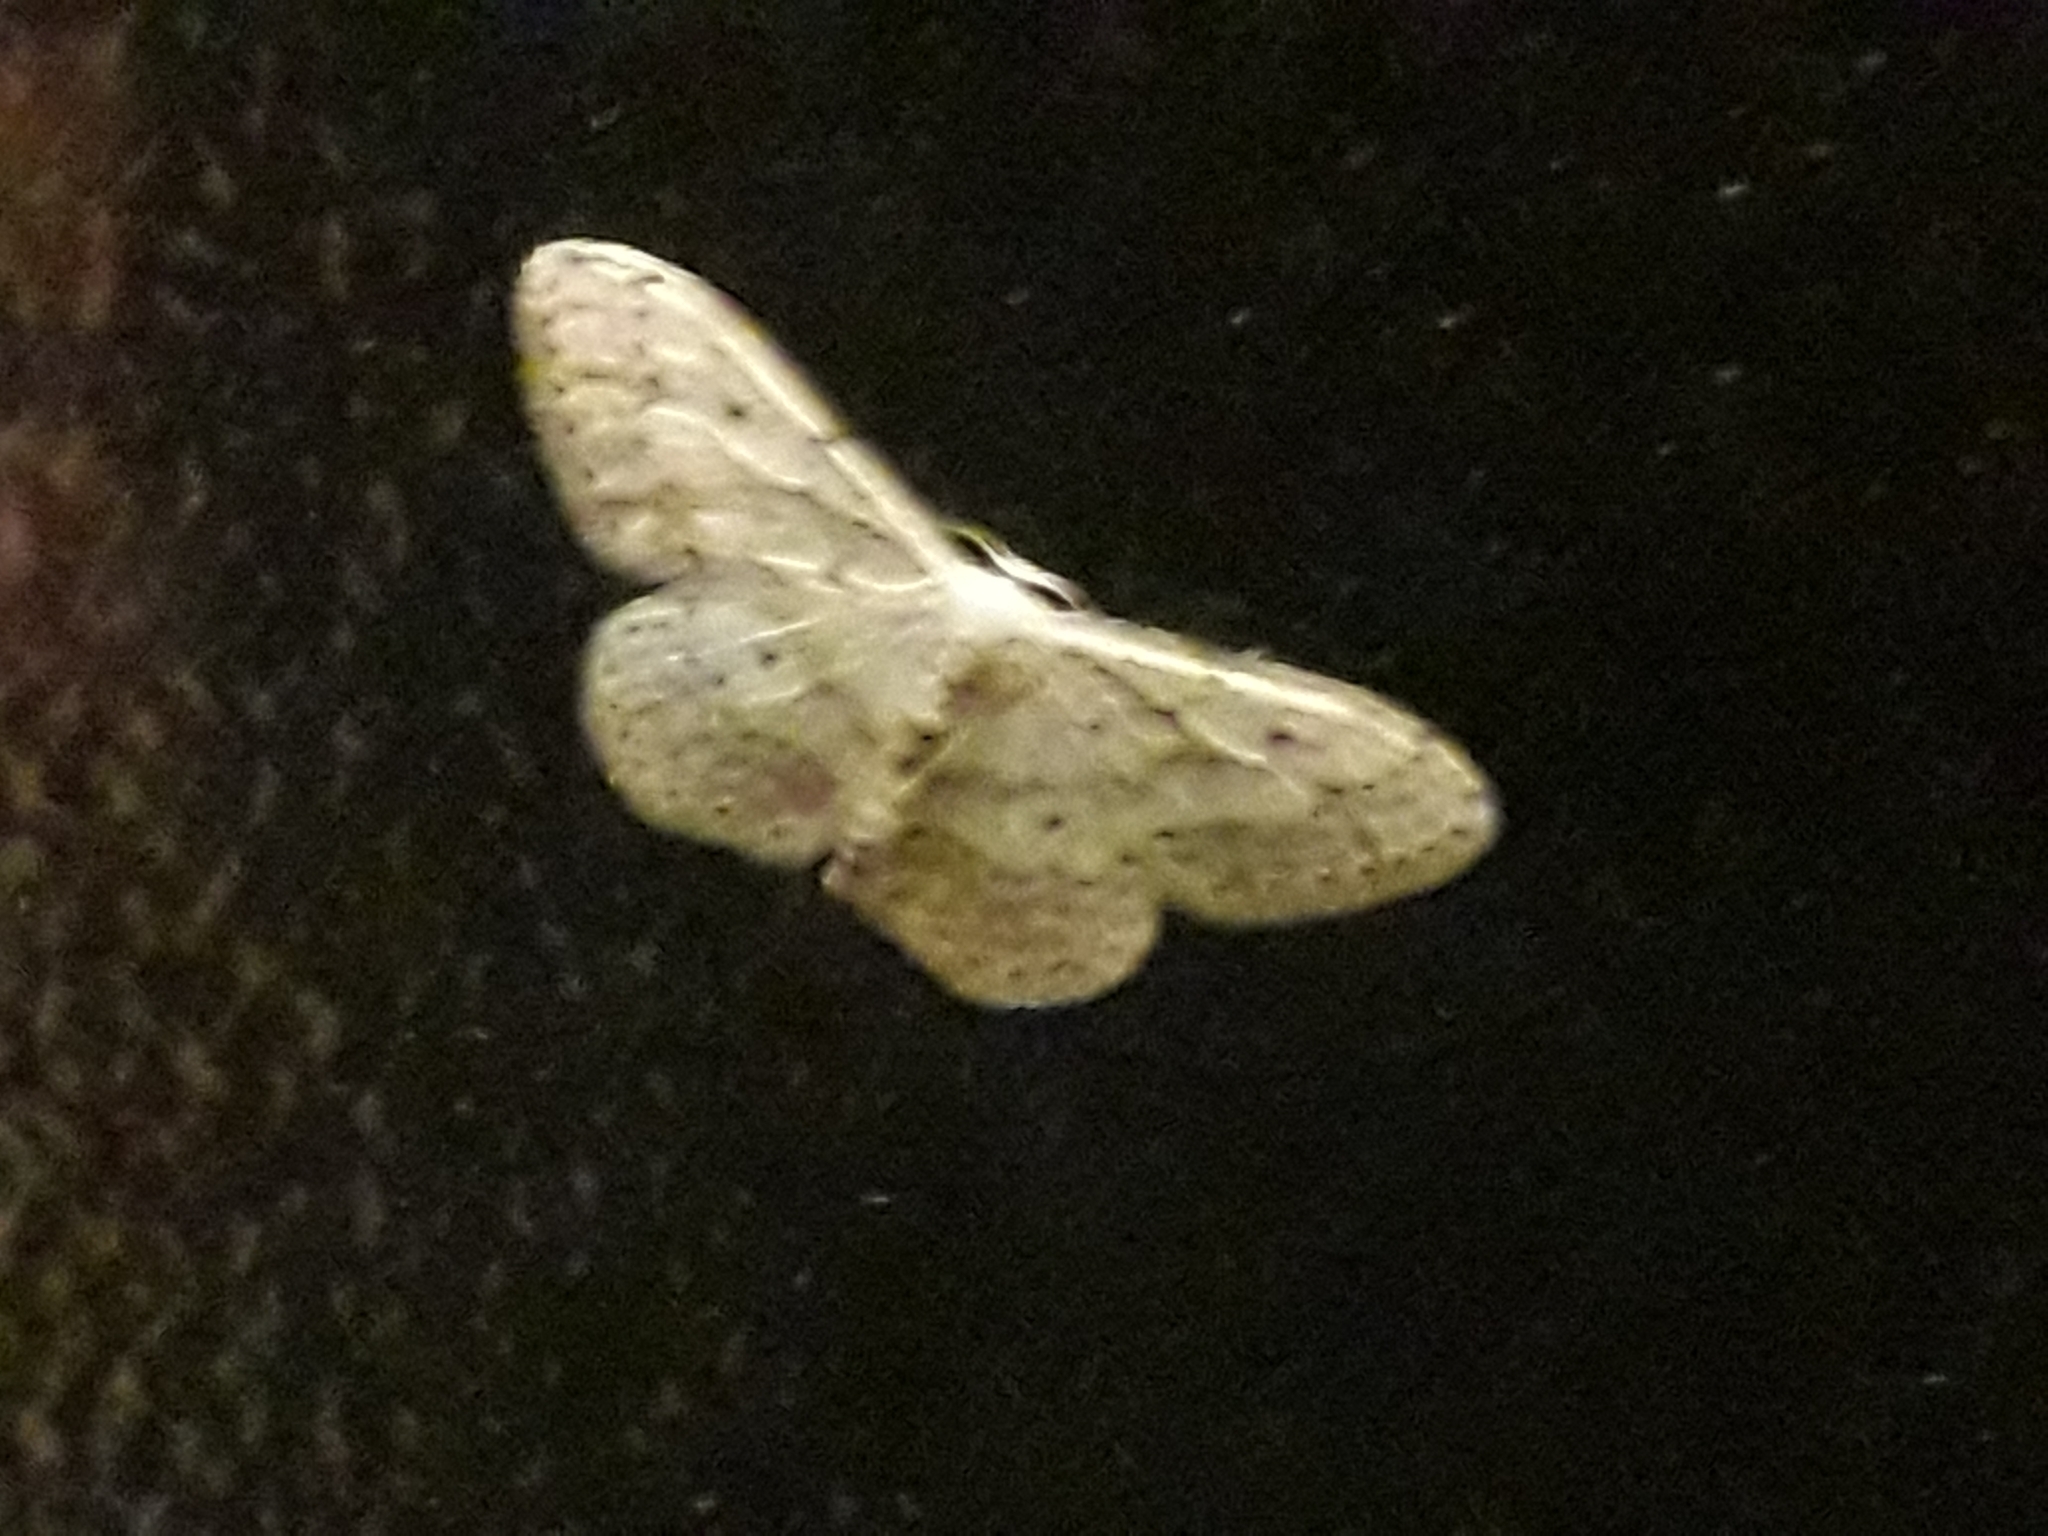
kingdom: Animalia
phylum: Arthropoda
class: Insecta
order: Lepidoptera
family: Geometridae
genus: Idaea
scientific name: Idaea seriata
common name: Small dusty wave
